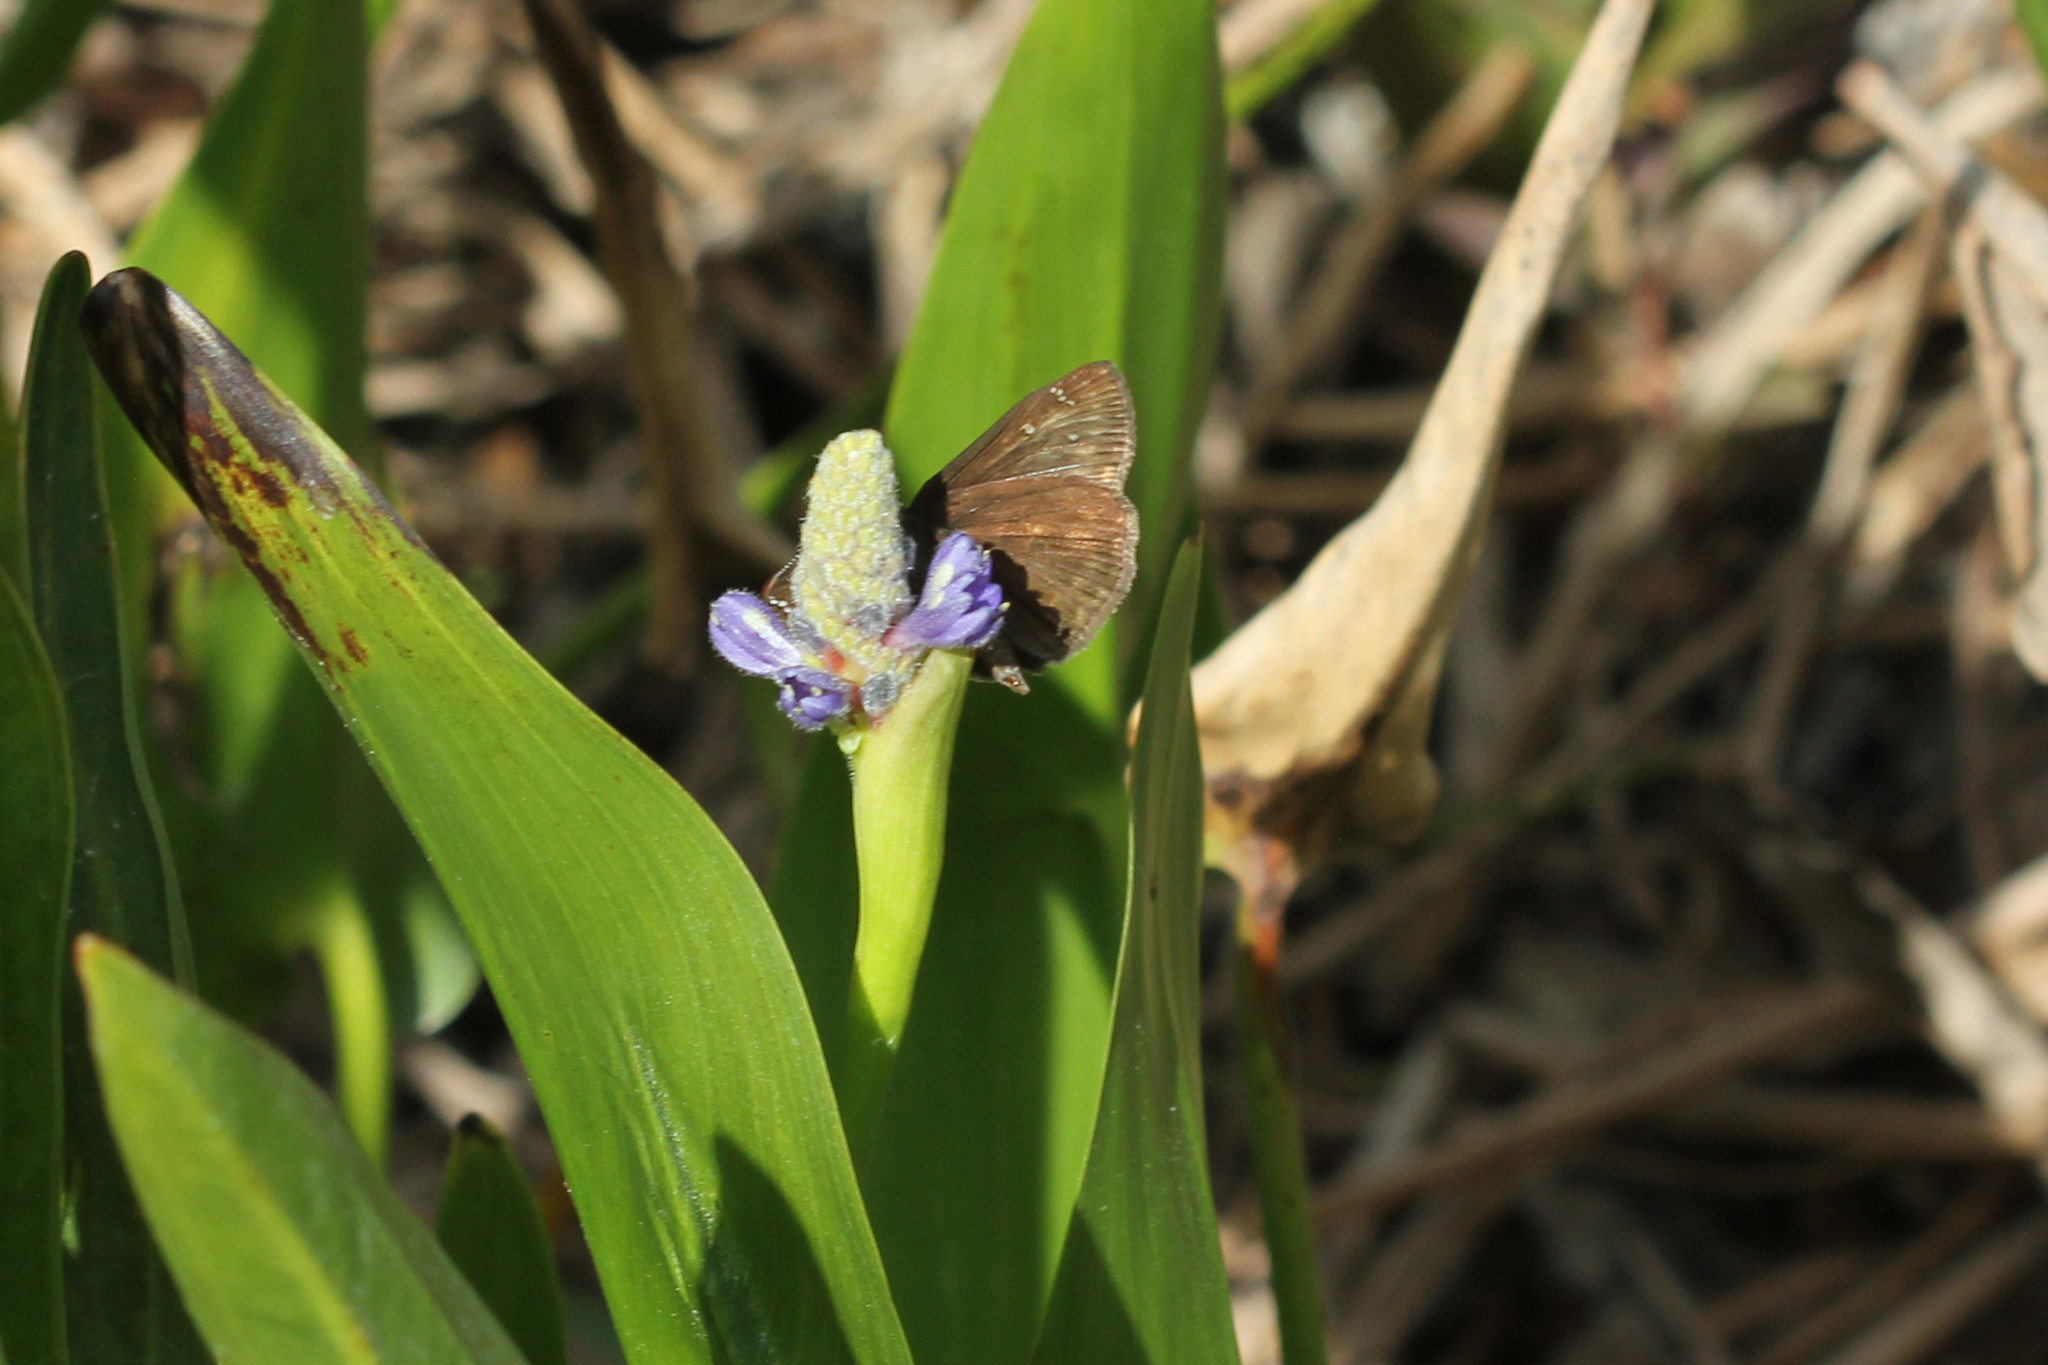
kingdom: Animalia
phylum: Arthropoda
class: Insecta
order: Lepidoptera
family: Hesperiidae
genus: Erynnis
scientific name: Erynnis horatius
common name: Horace's duskywing
